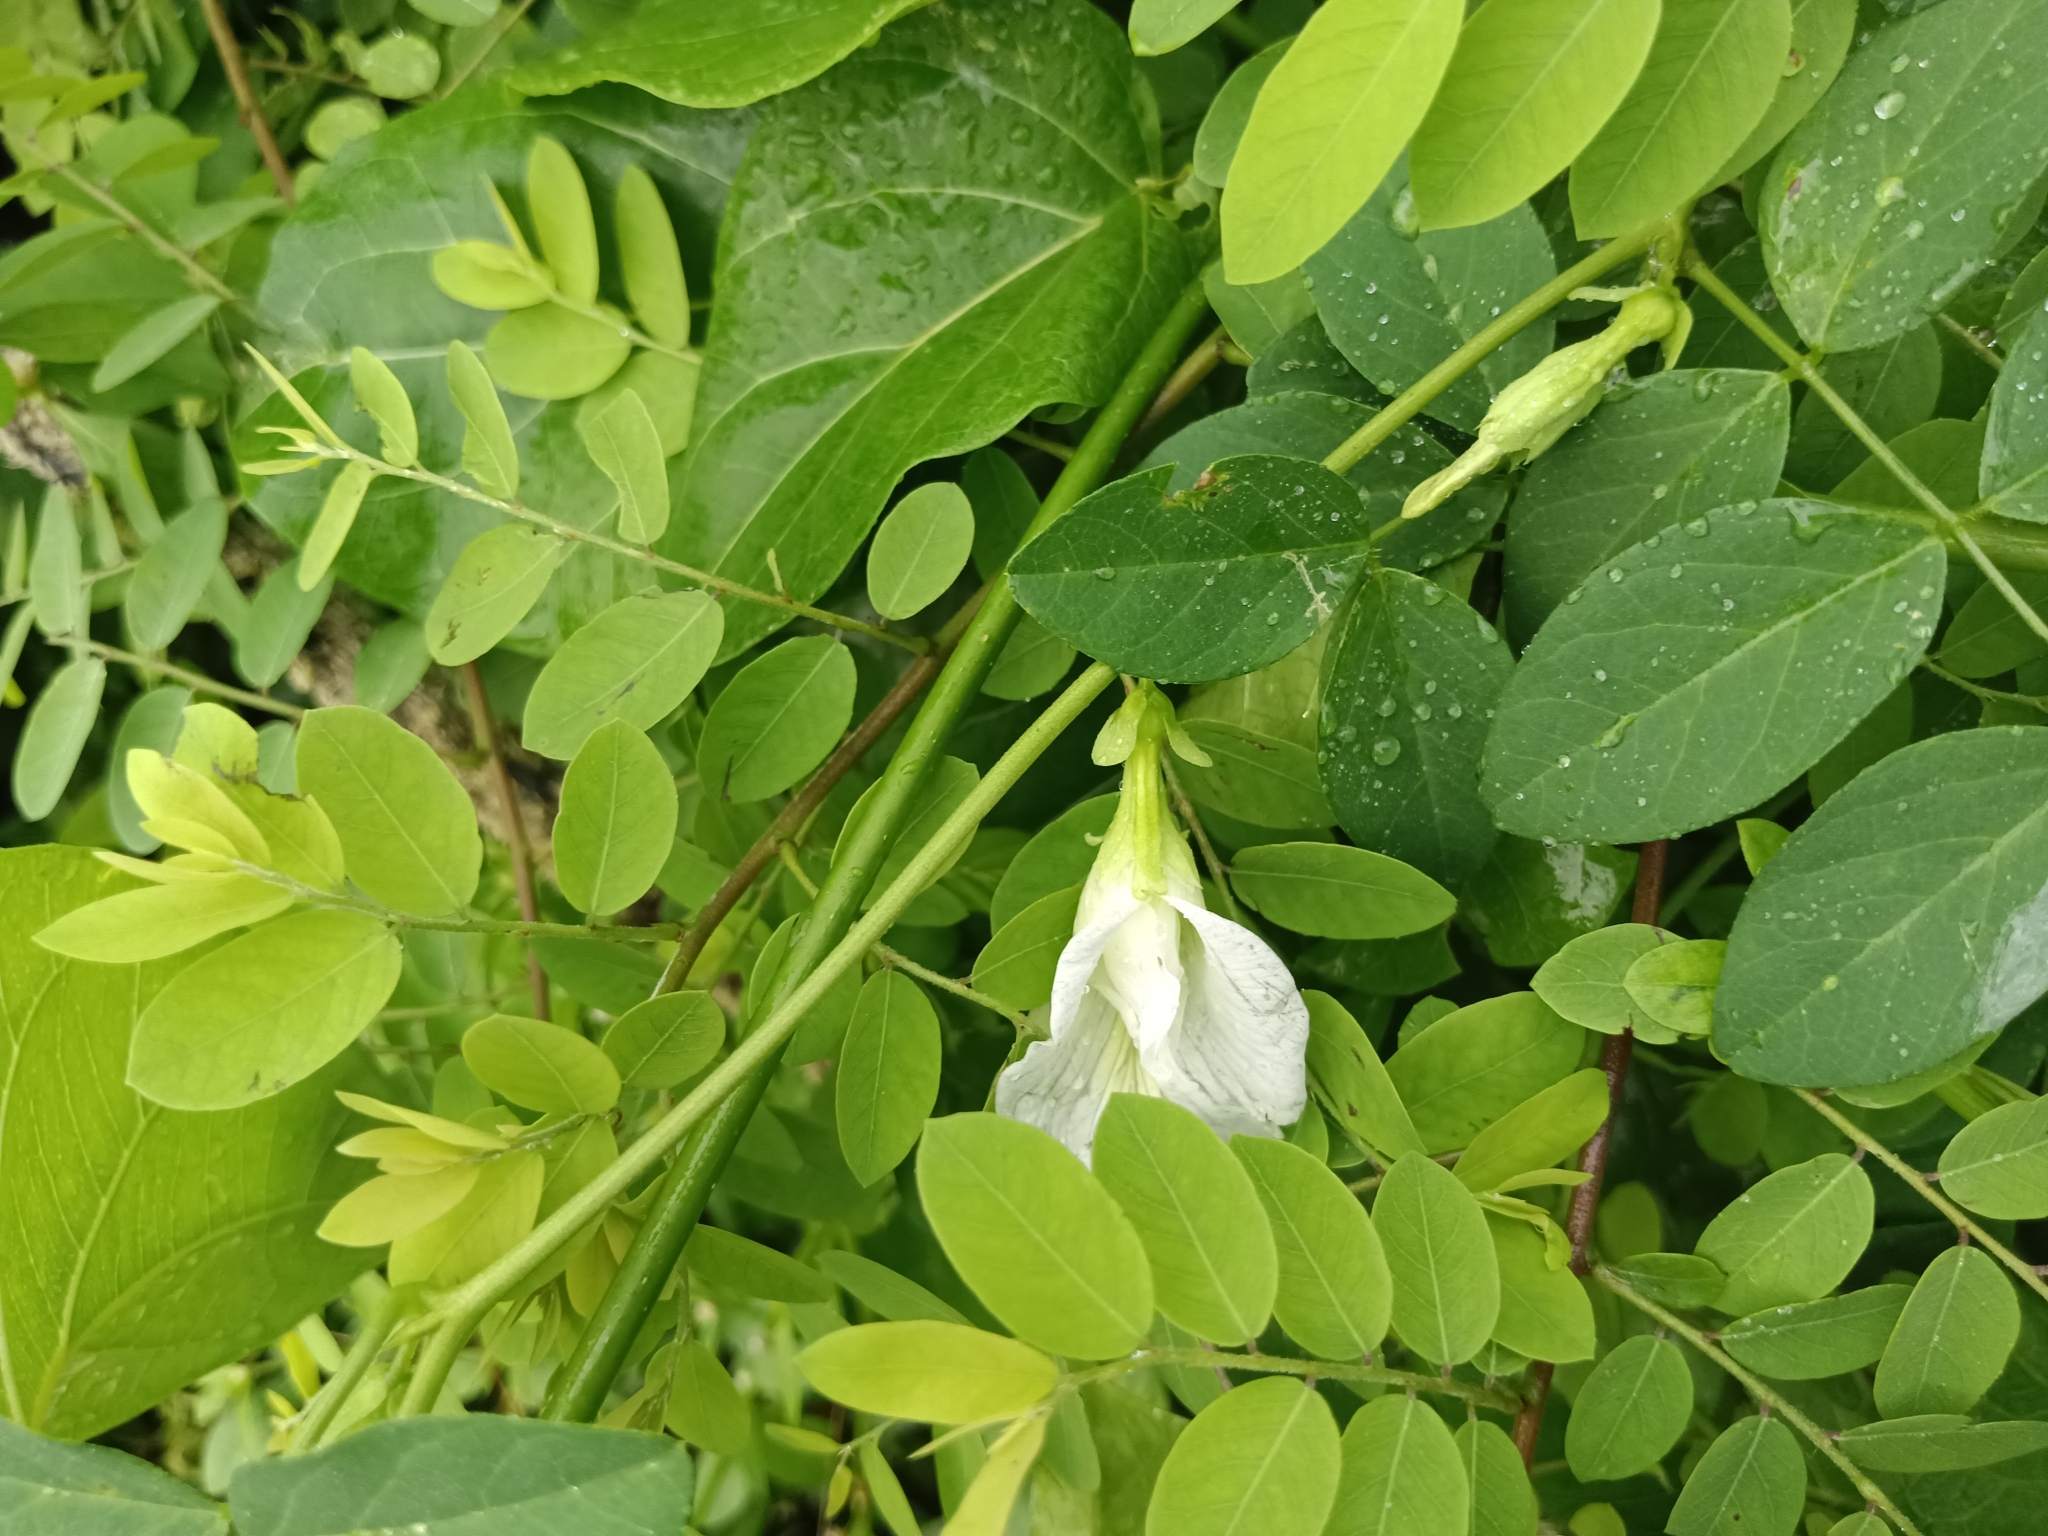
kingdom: Plantae
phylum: Tracheophyta
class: Magnoliopsida
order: Fabales
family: Fabaceae
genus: Clitoria
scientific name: Clitoria ternatea
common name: Asian pigeonwings
